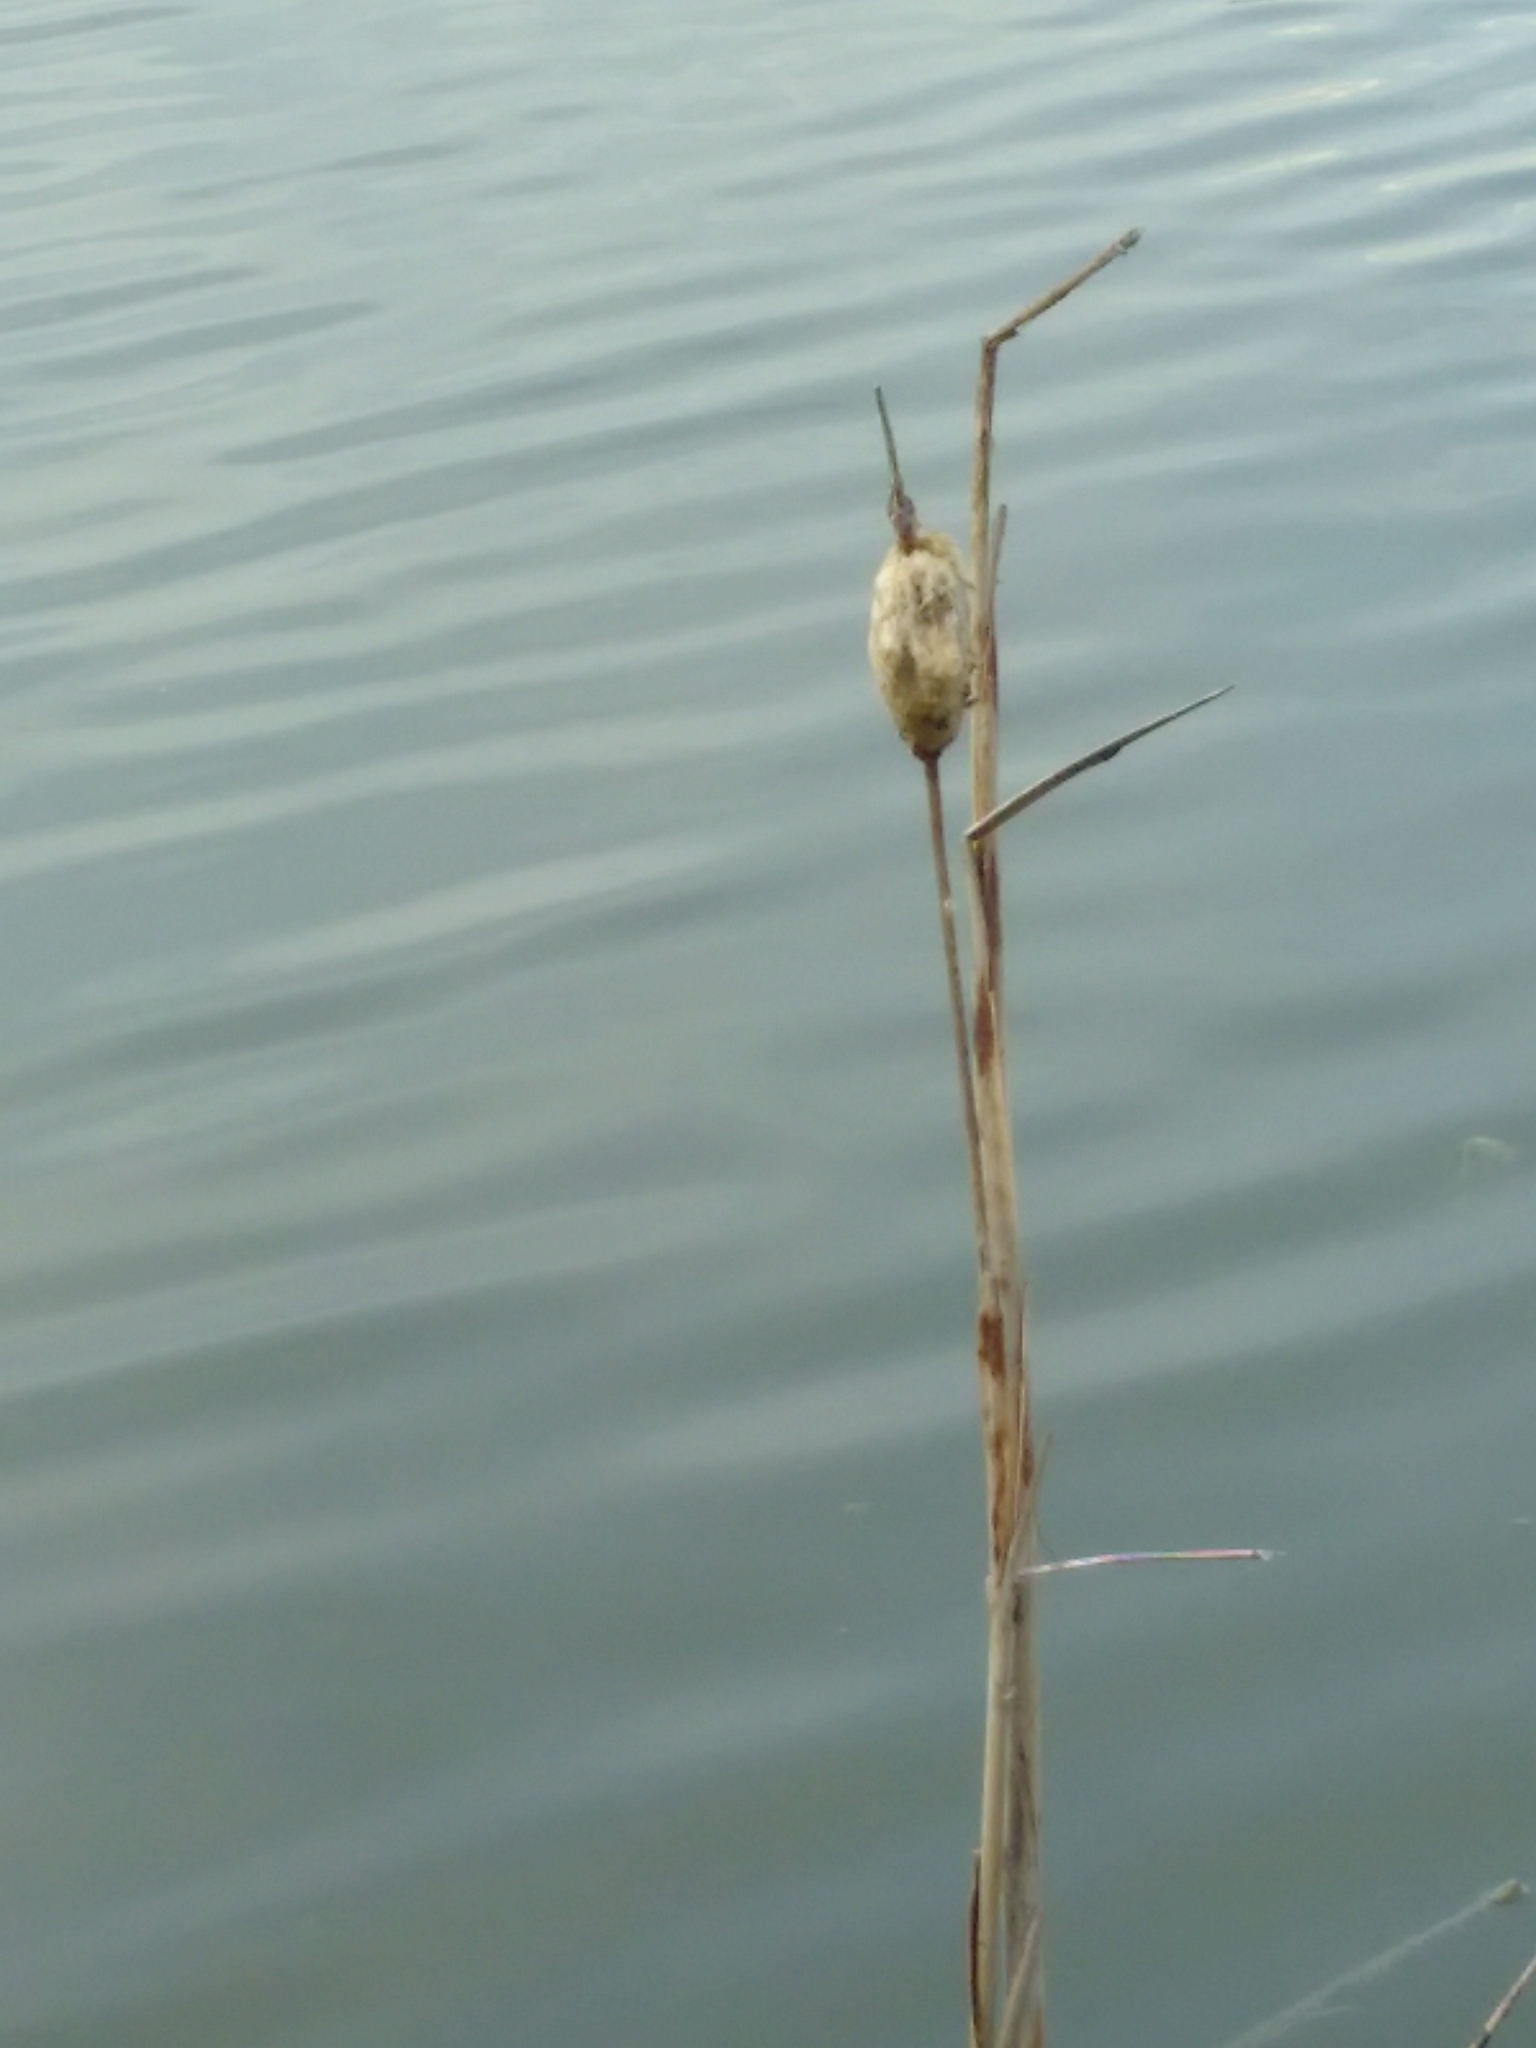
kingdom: Plantae
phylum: Tracheophyta
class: Liliopsida
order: Poales
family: Typhaceae
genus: Typha
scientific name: Typha
